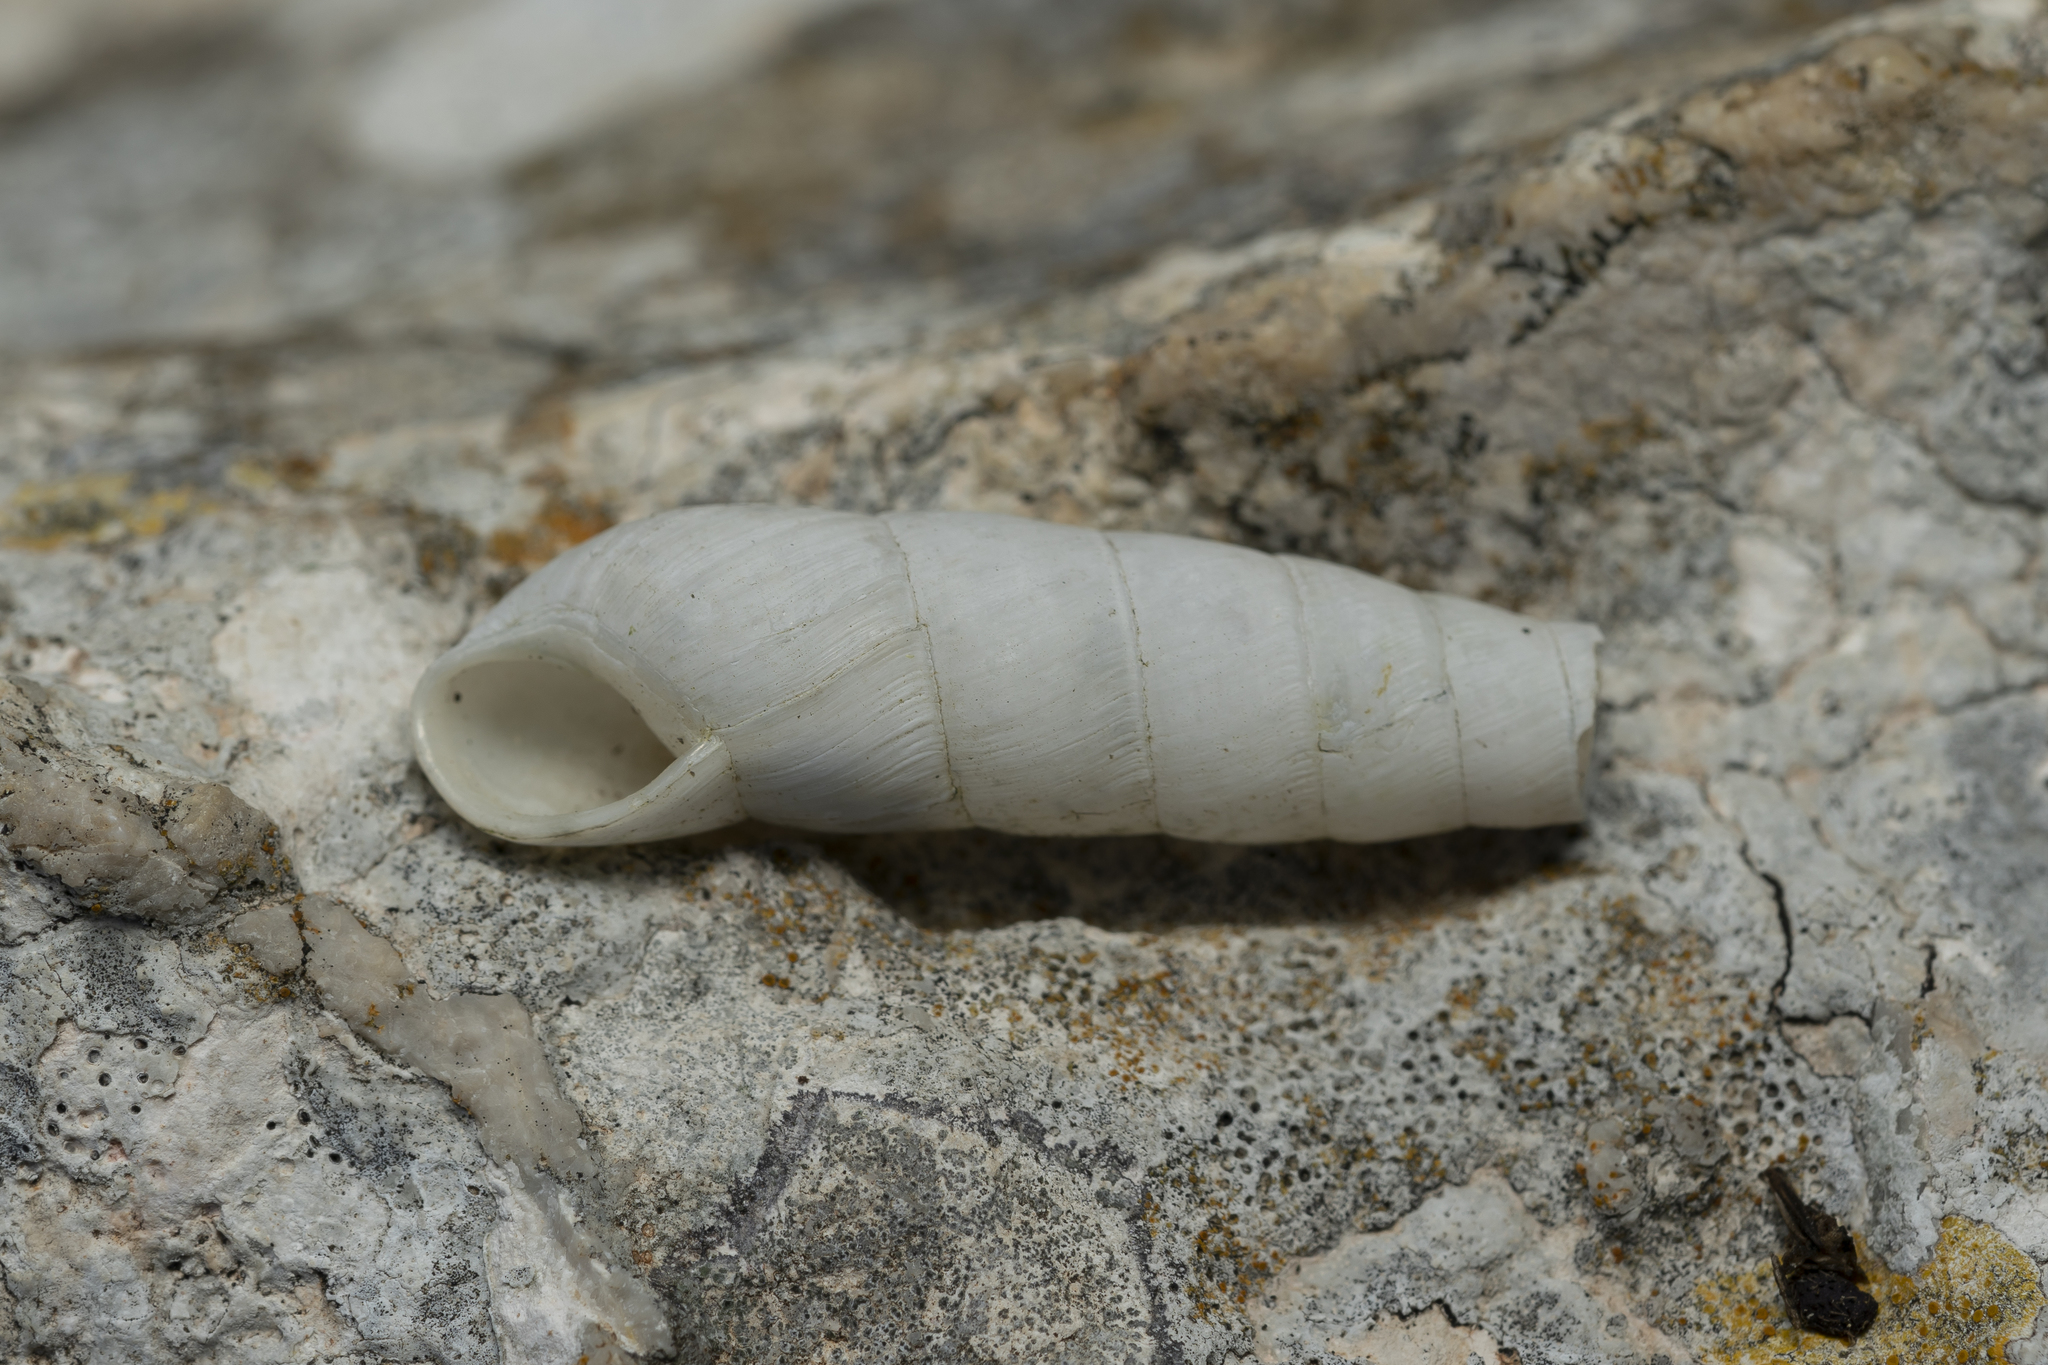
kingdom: Animalia
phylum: Mollusca
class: Gastropoda
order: Stylommatophora
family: Achatinidae
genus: Rumina
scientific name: Rumina saharica
